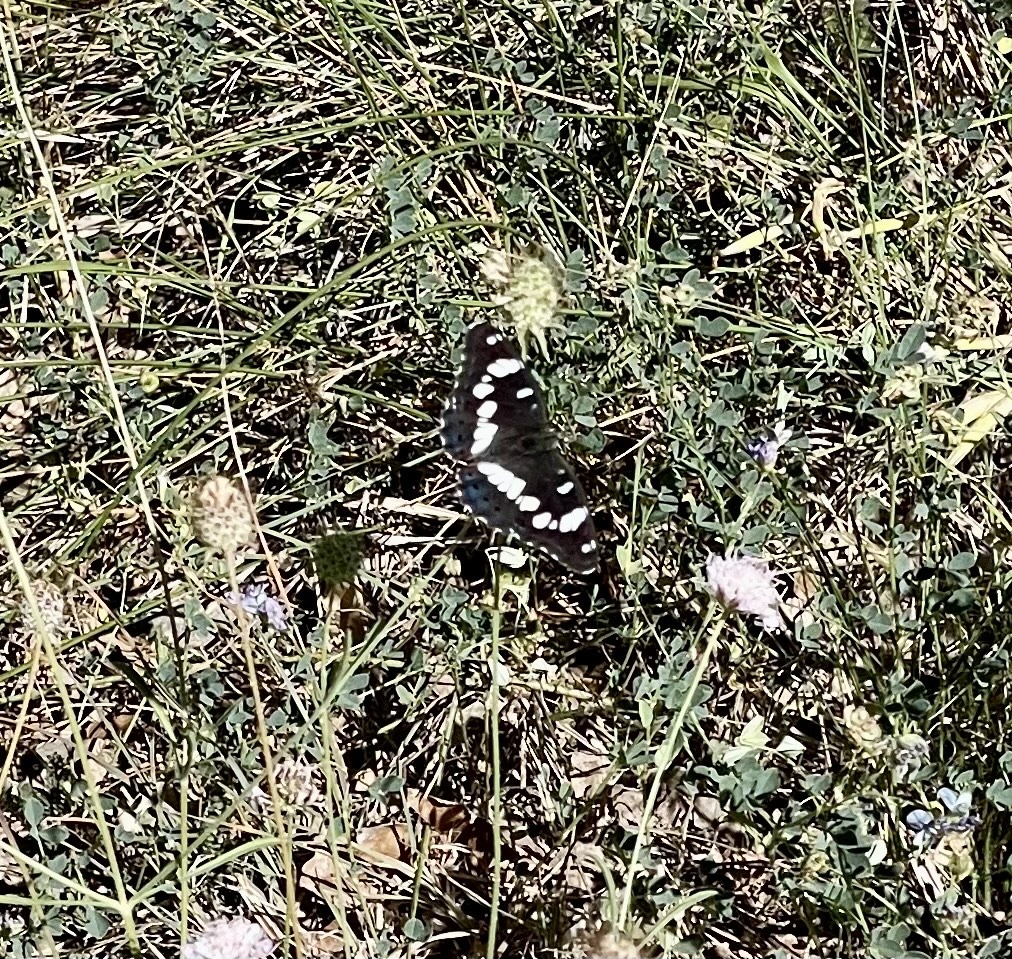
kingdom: Animalia
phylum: Arthropoda
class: Insecta
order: Lepidoptera
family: Nymphalidae
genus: Limenitis
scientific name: Limenitis reducta
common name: Southern white admiral
